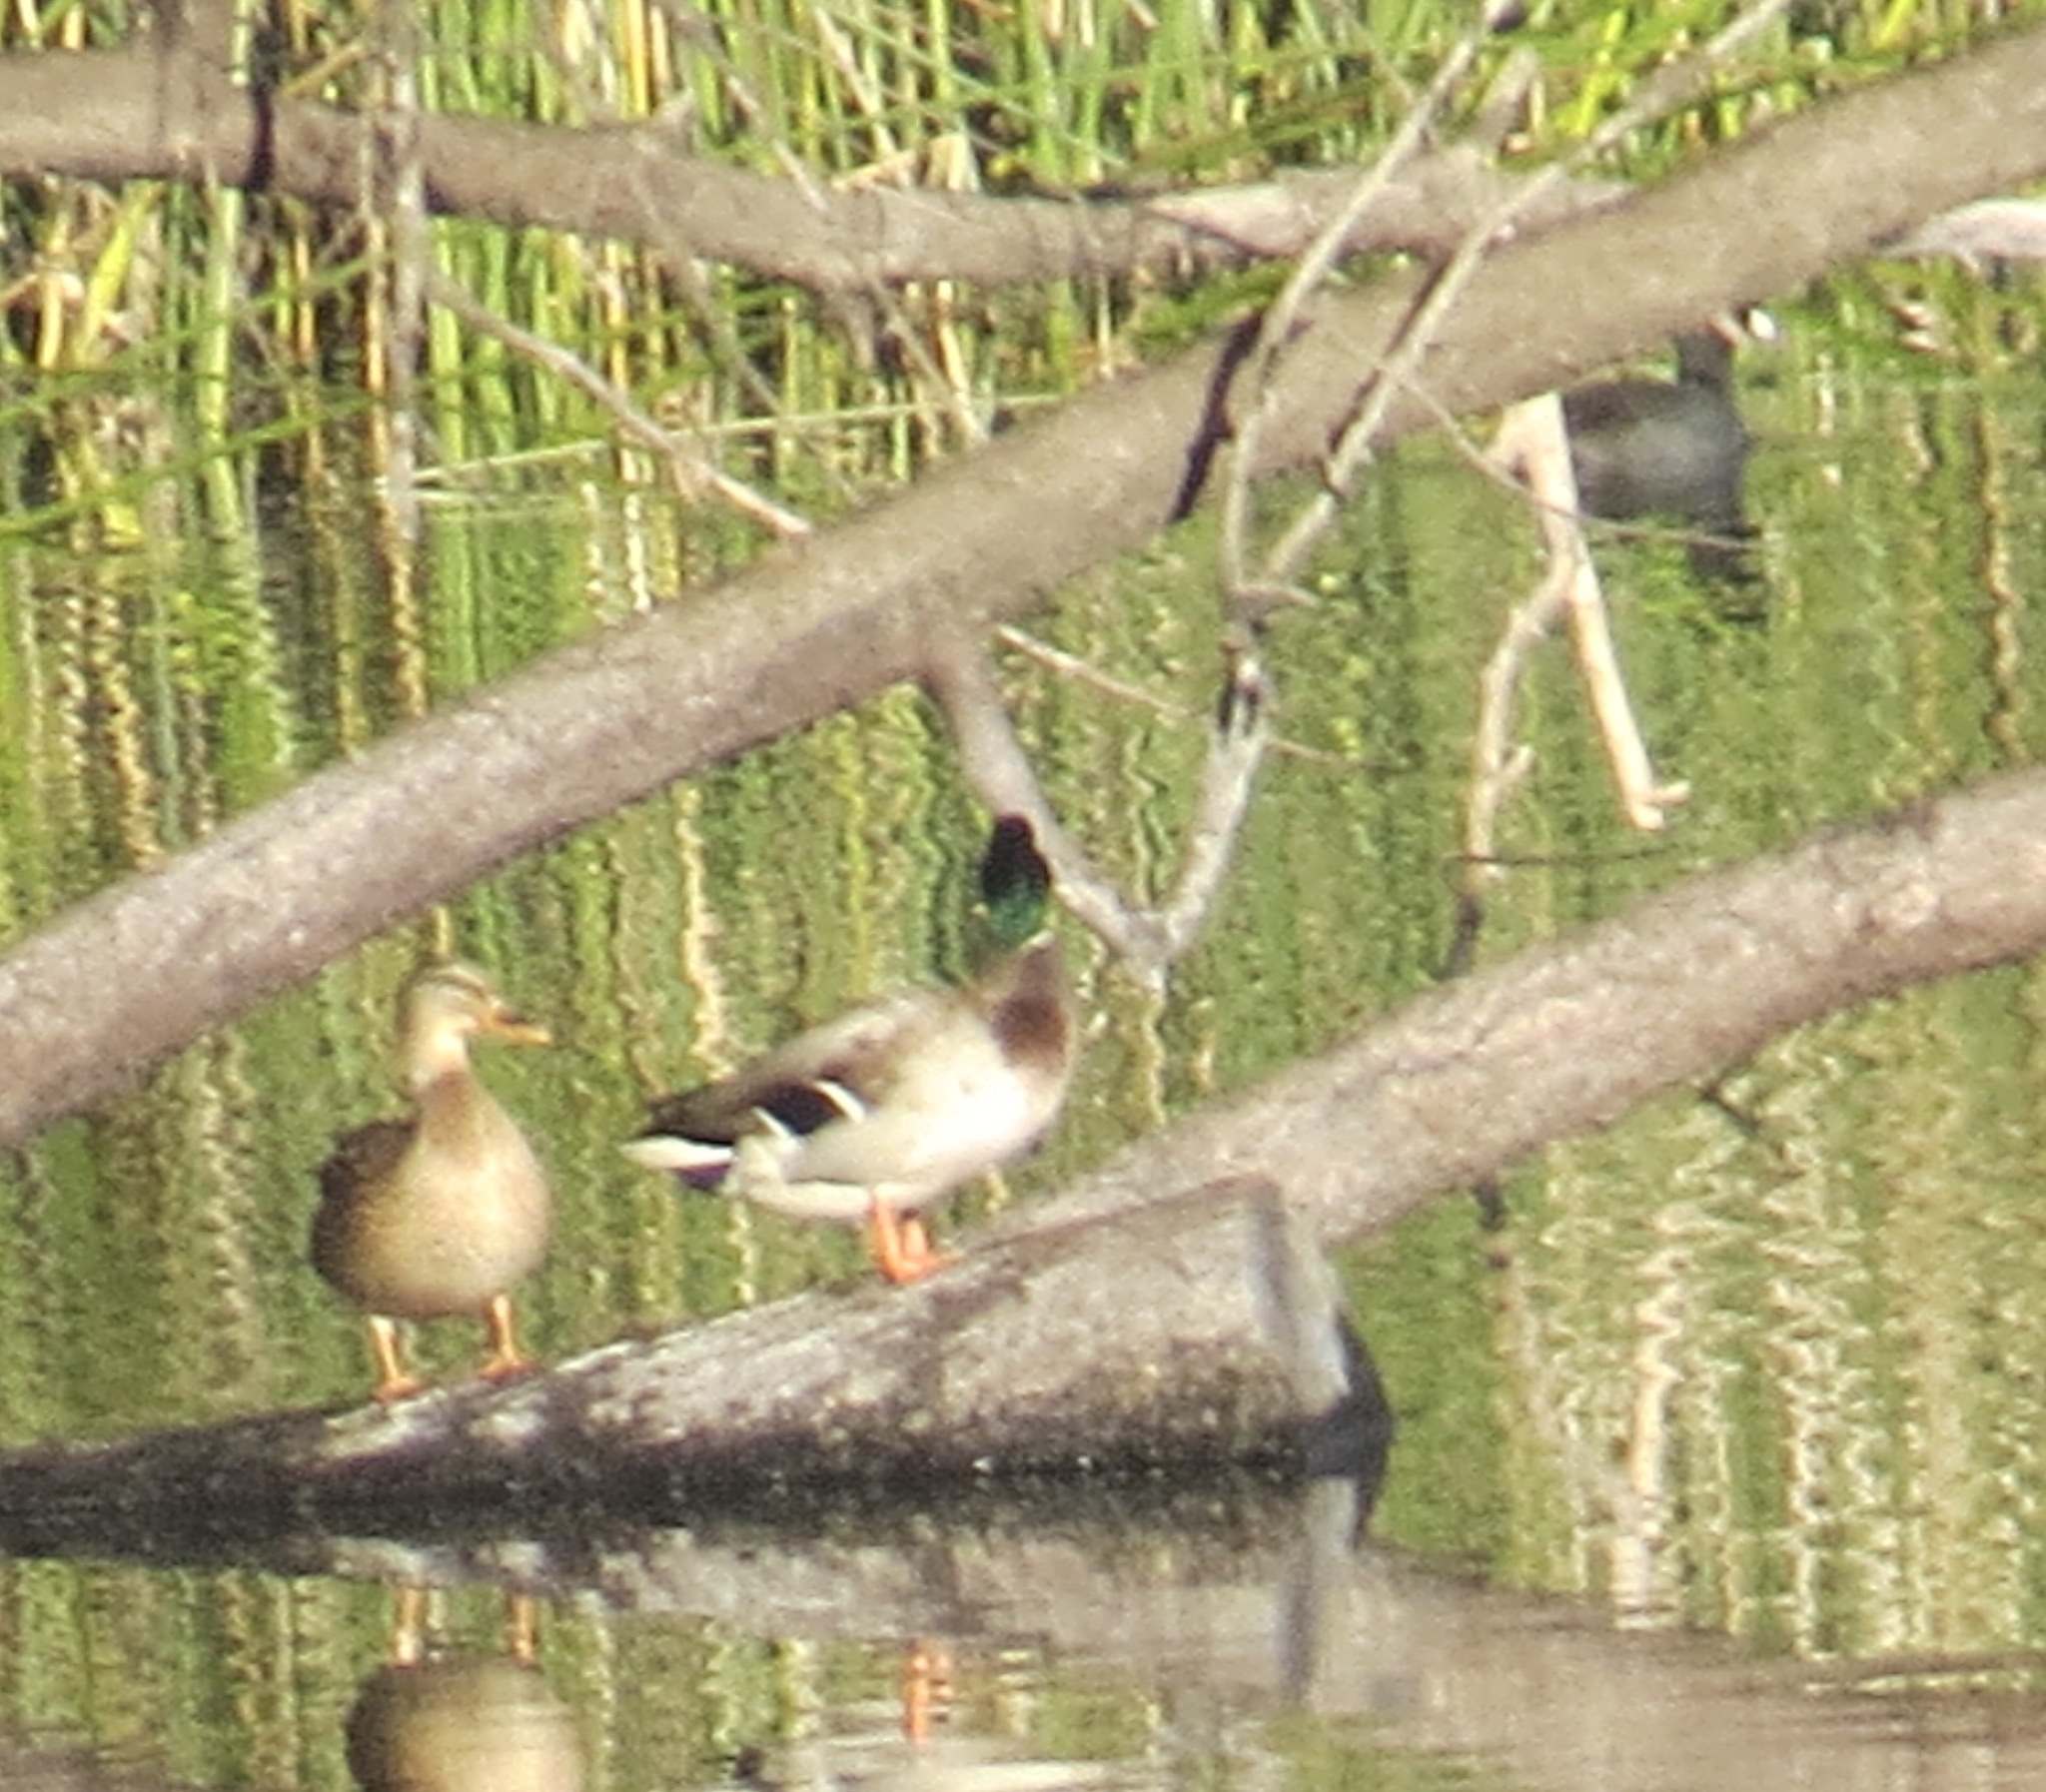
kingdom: Animalia
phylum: Chordata
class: Aves
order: Anseriformes
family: Anatidae
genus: Anas
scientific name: Anas platyrhynchos
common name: Mallard
